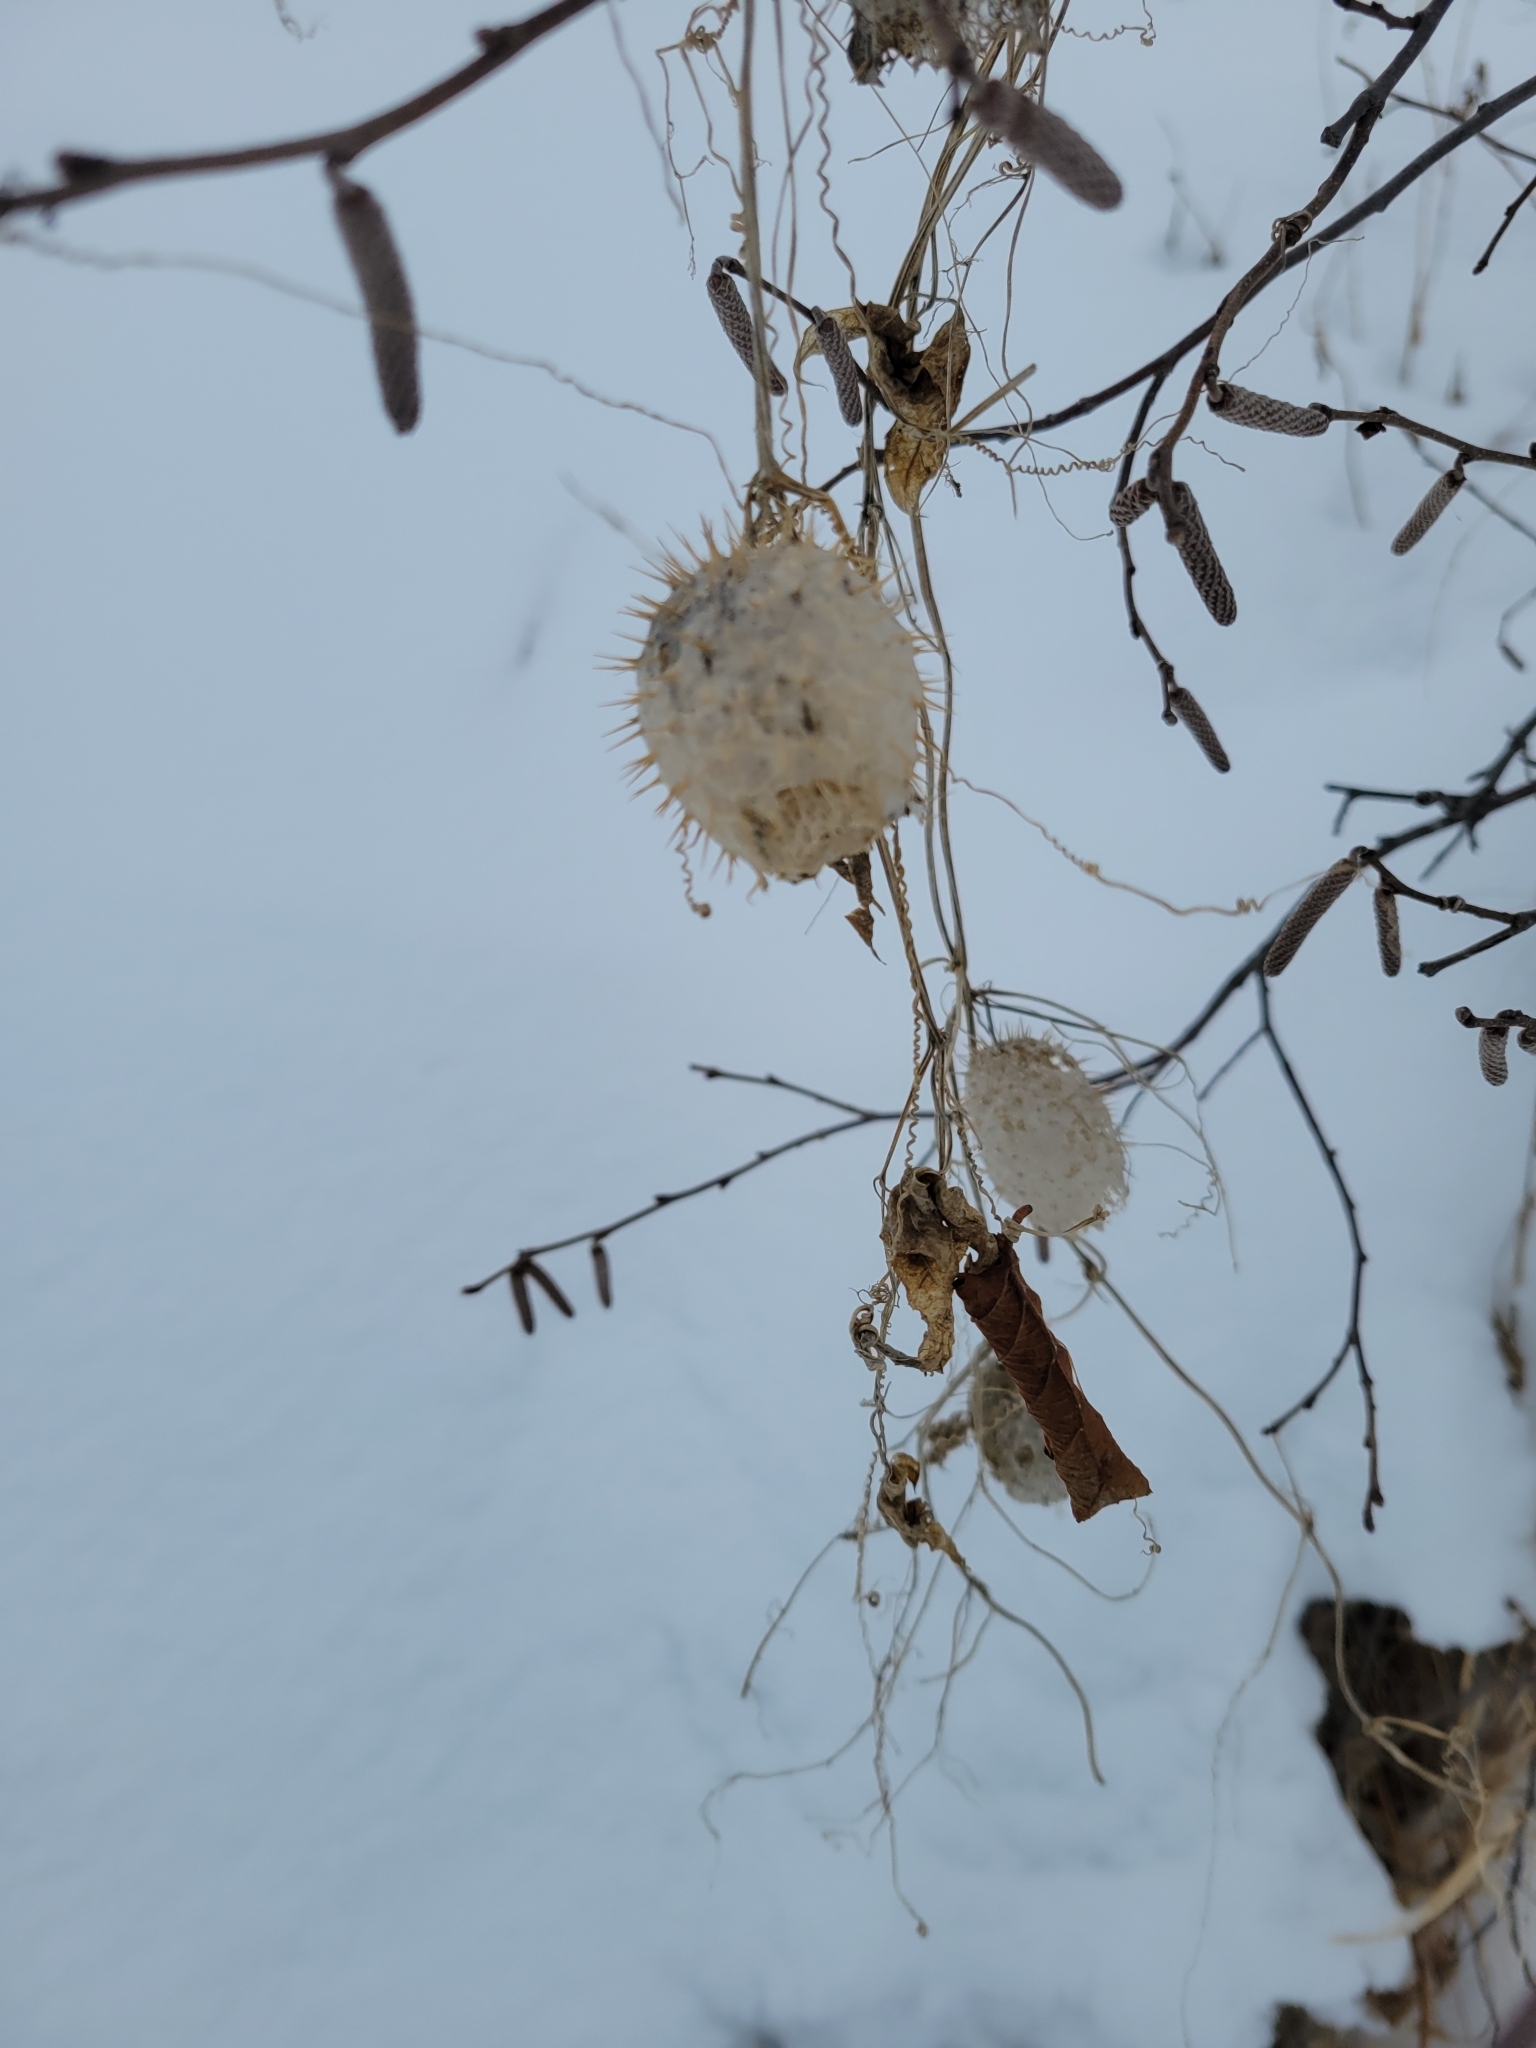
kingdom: Plantae
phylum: Tracheophyta
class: Magnoliopsida
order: Cucurbitales
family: Cucurbitaceae
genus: Echinocystis
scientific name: Echinocystis lobata
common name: Wild cucumber
